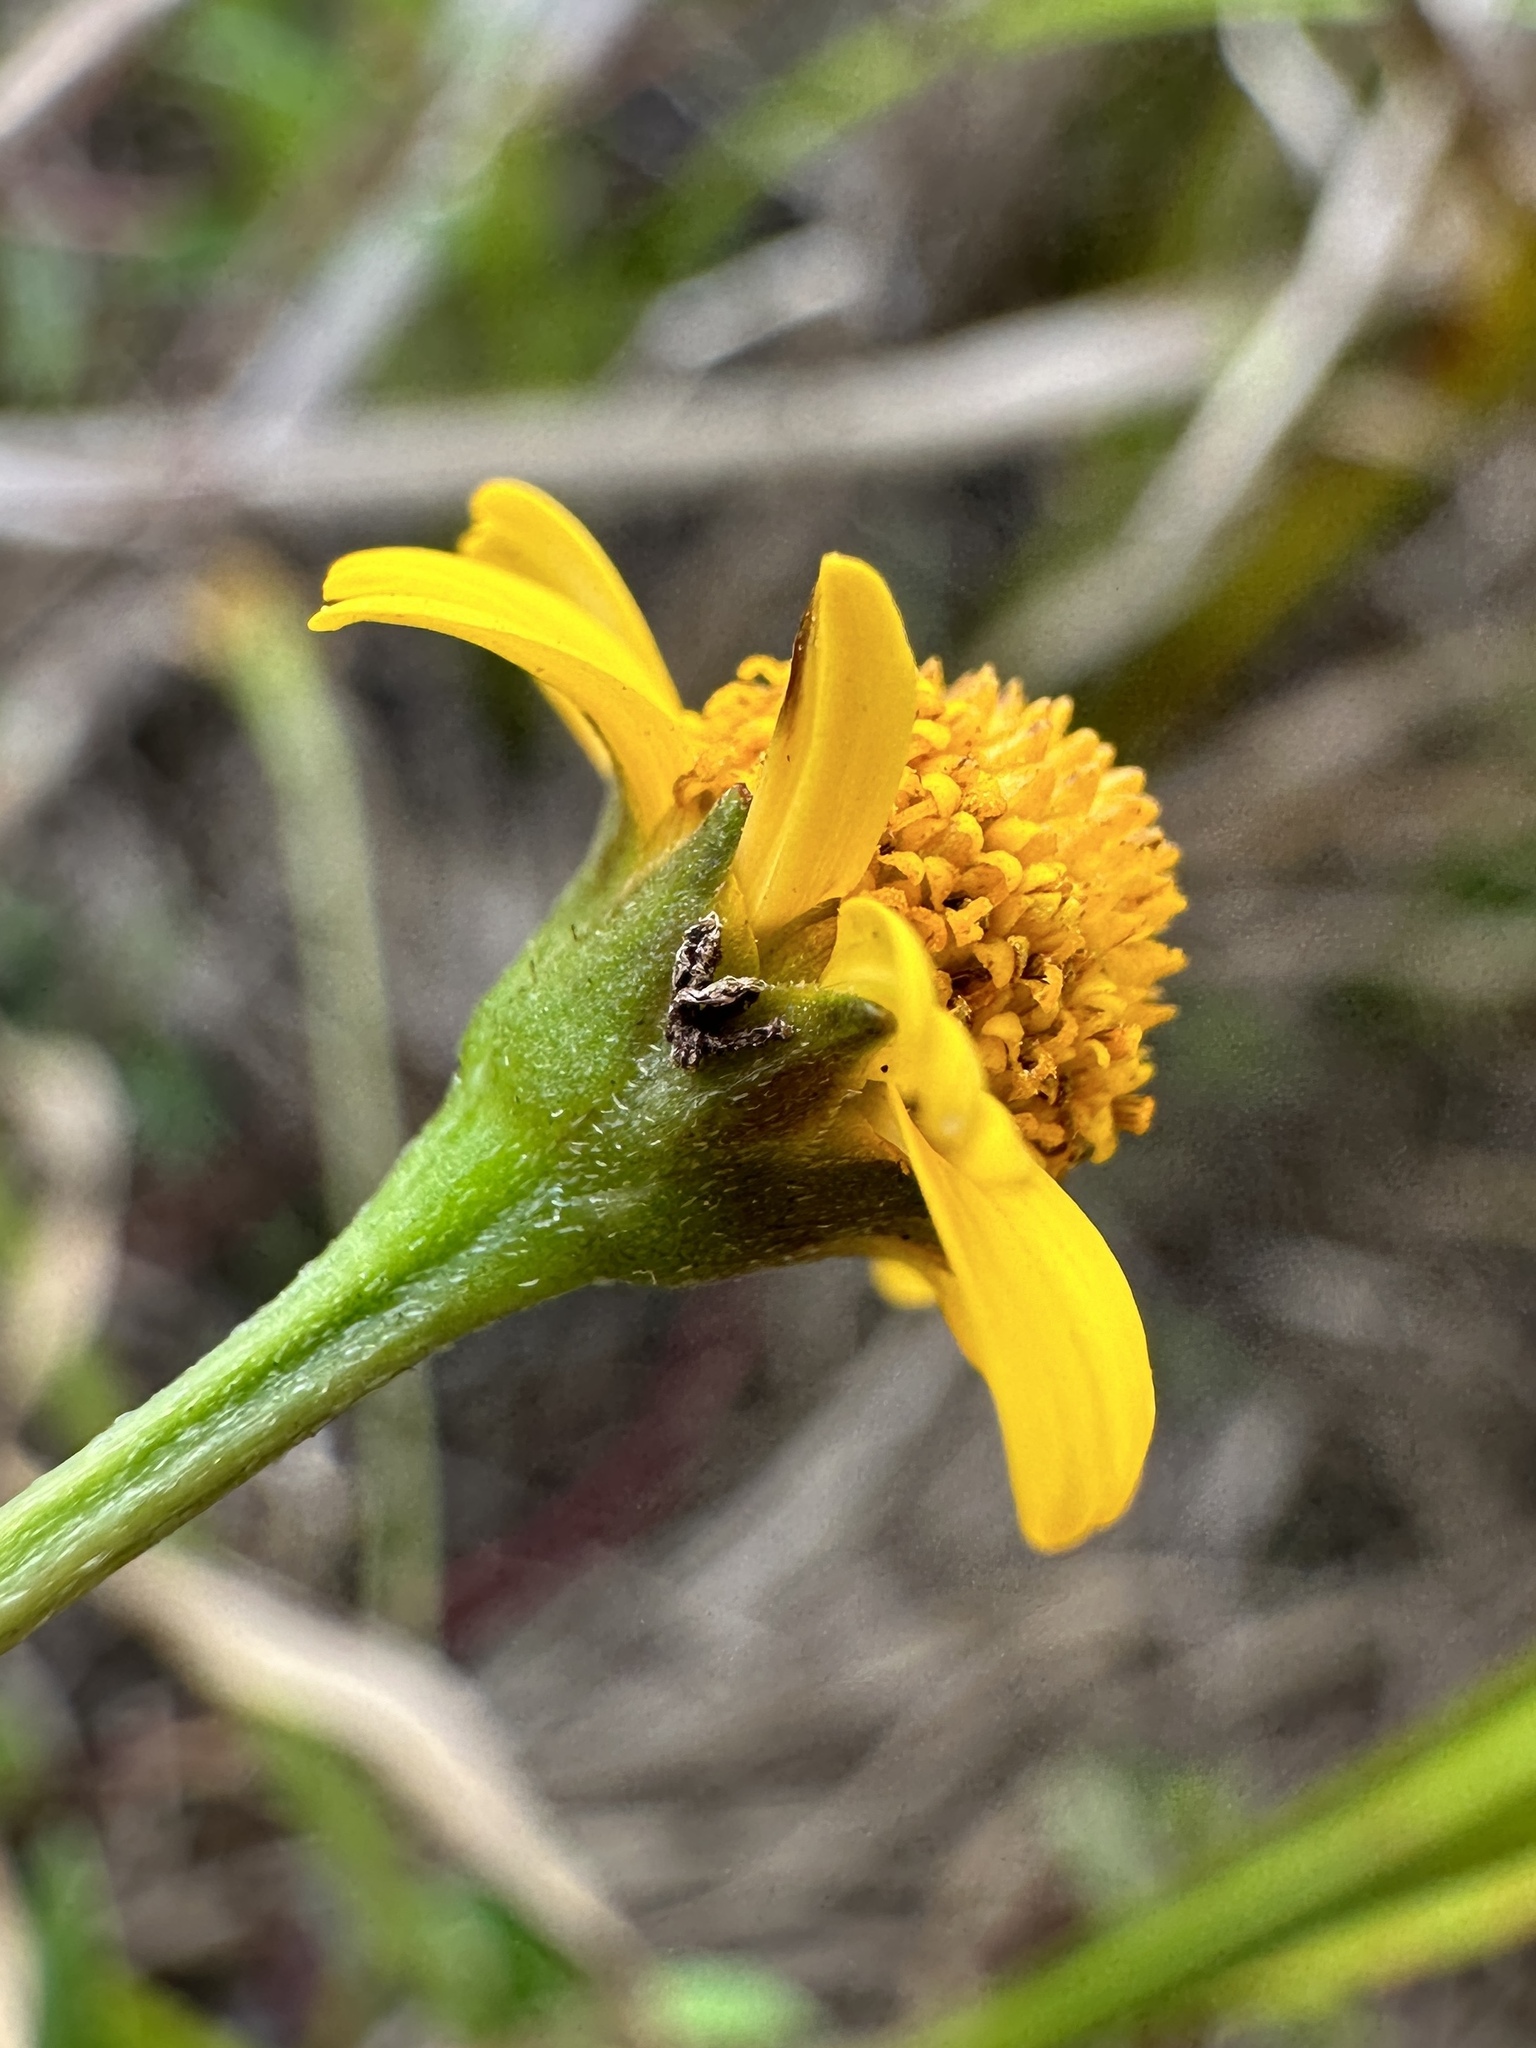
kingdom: Plantae
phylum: Tracheophyta
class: Magnoliopsida
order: Asterales
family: Asteraceae
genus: Acmella
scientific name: Acmella repens
